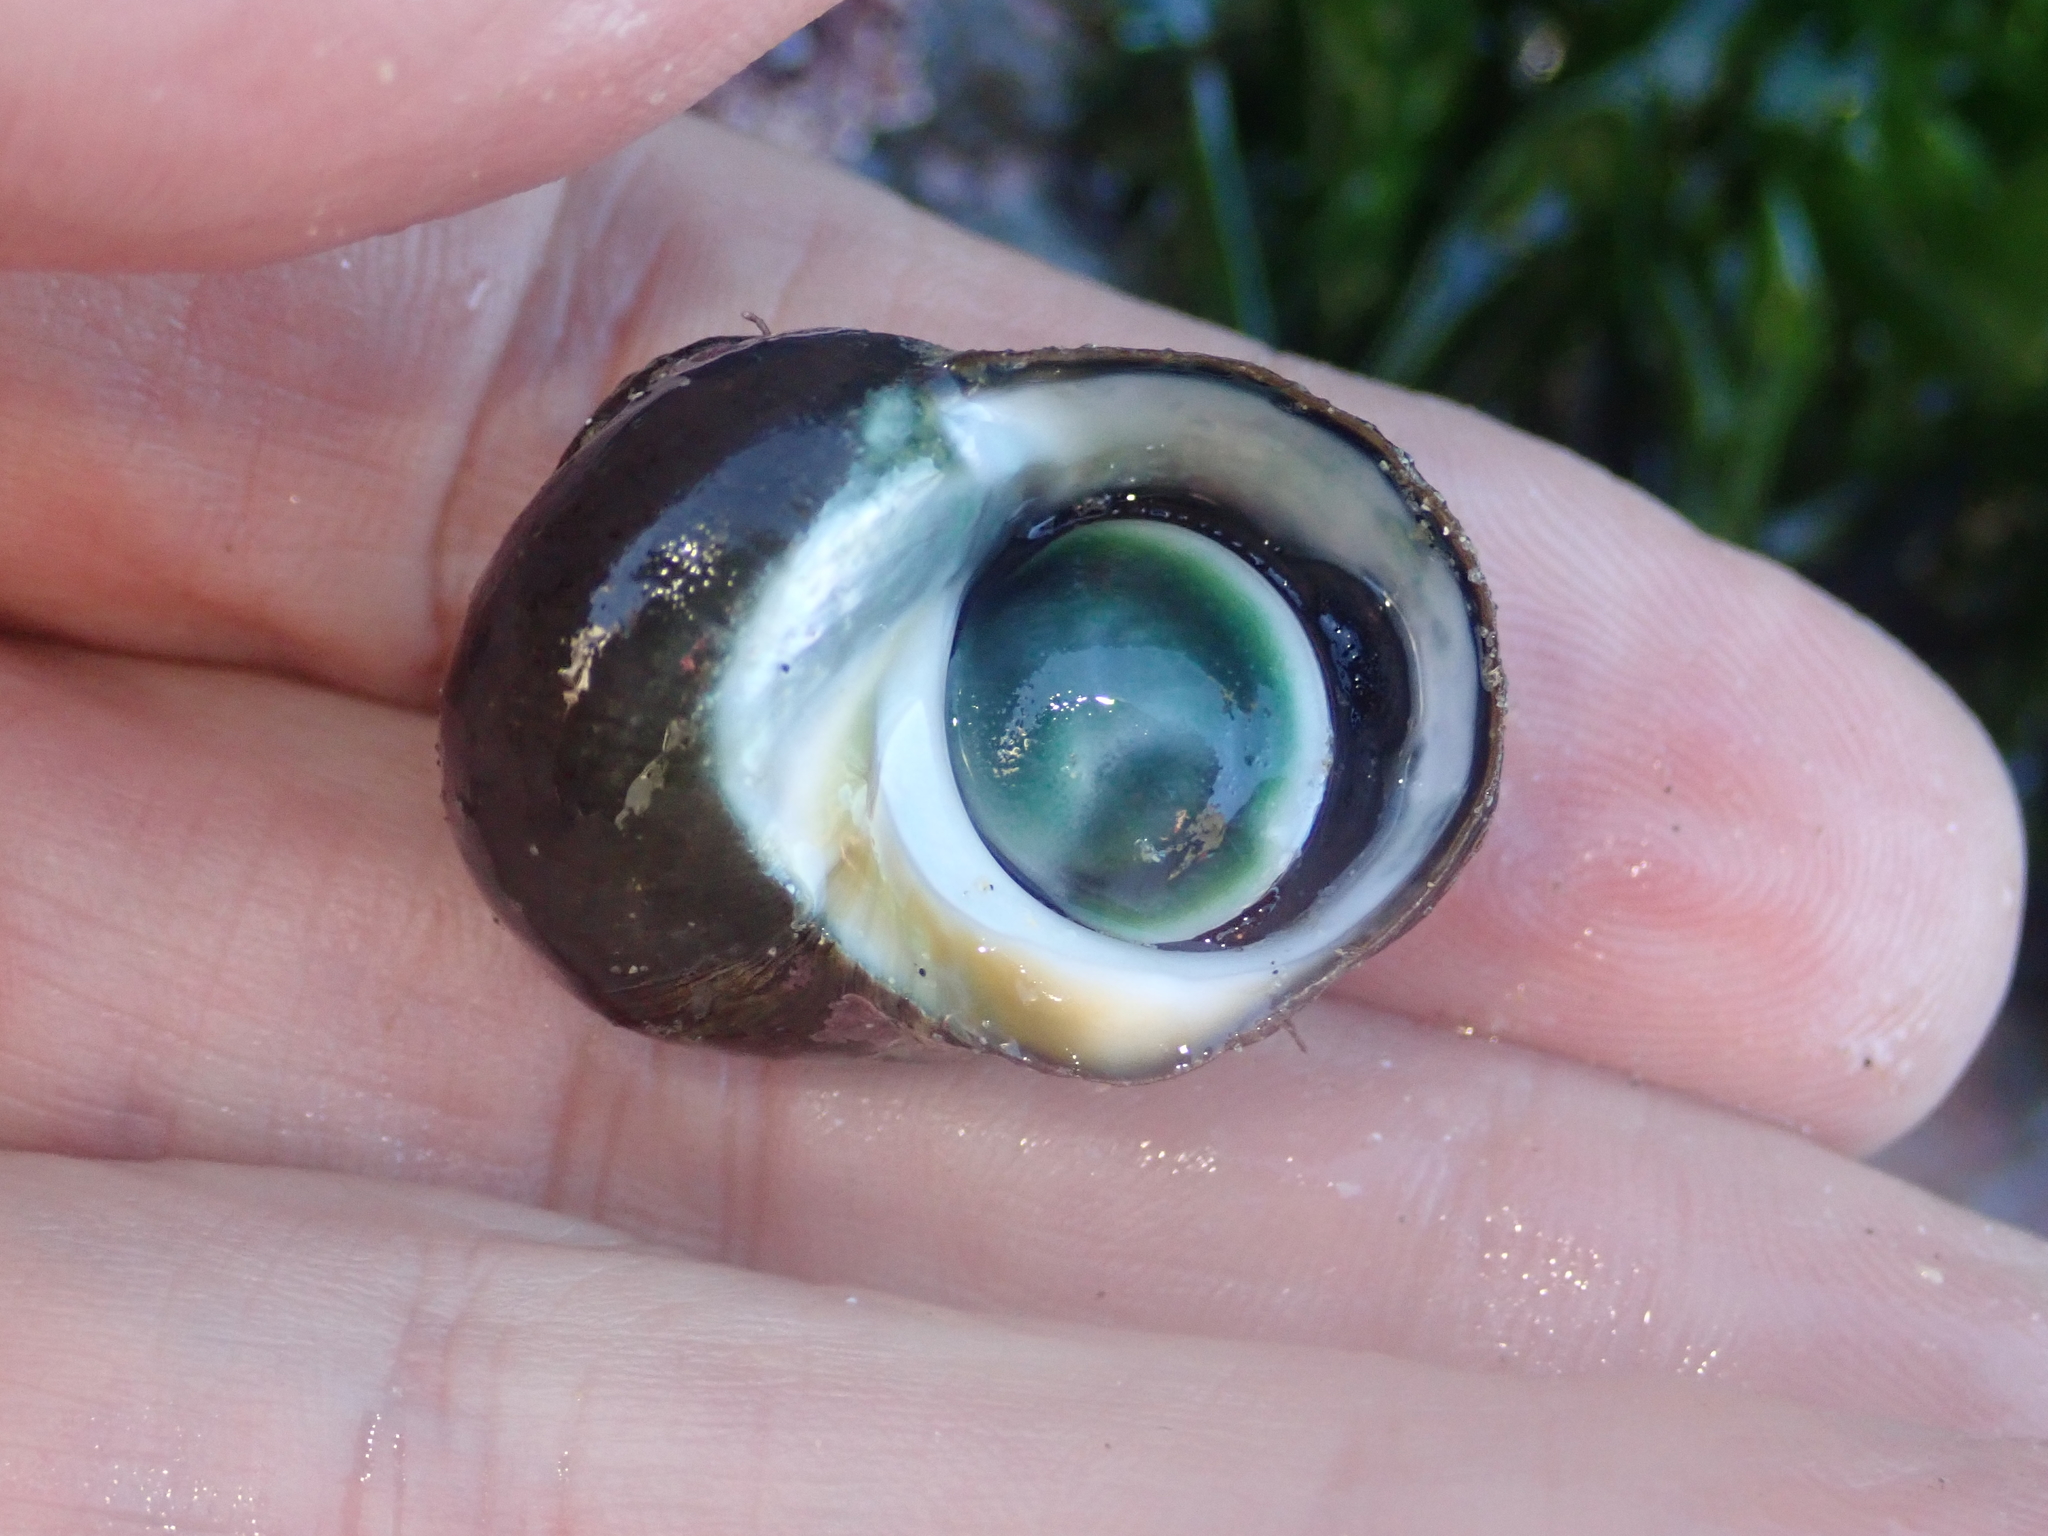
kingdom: Animalia
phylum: Mollusca
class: Gastropoda
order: Trochida
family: Turbinidae
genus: Lunella
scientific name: Lunella smaragda
